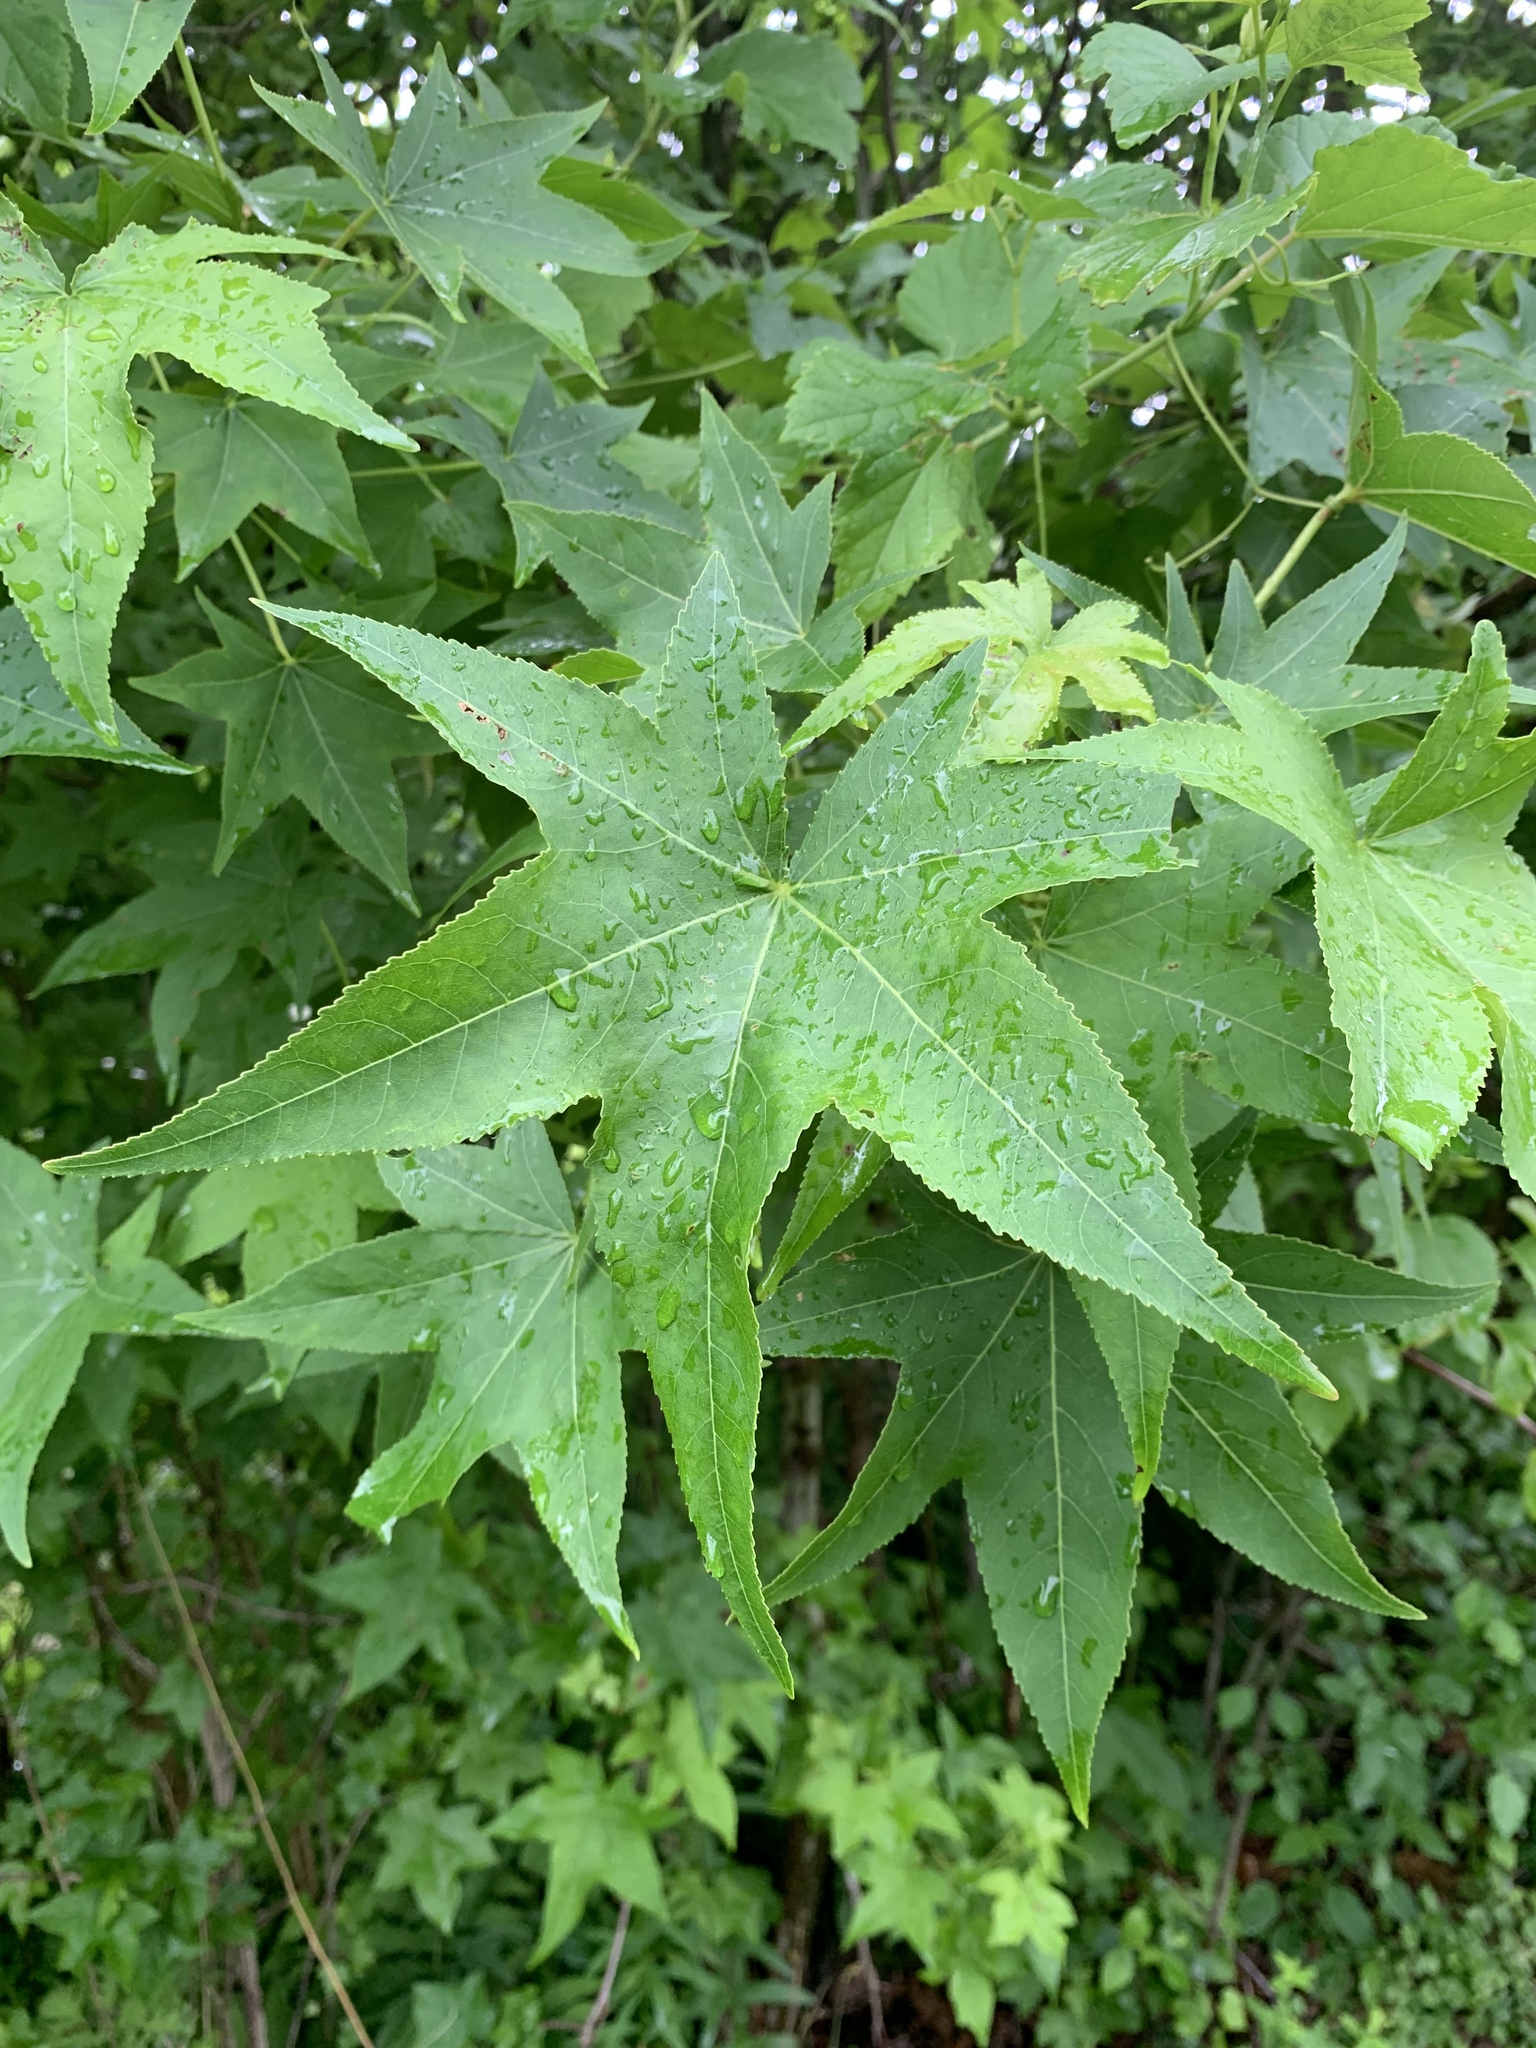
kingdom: Plantae
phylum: Tracheophyta
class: Magnoliopsida
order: Saxifragales
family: Altingiaceae
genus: Liquidambar
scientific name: Liquidambar styraciflua
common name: Sweet gum
